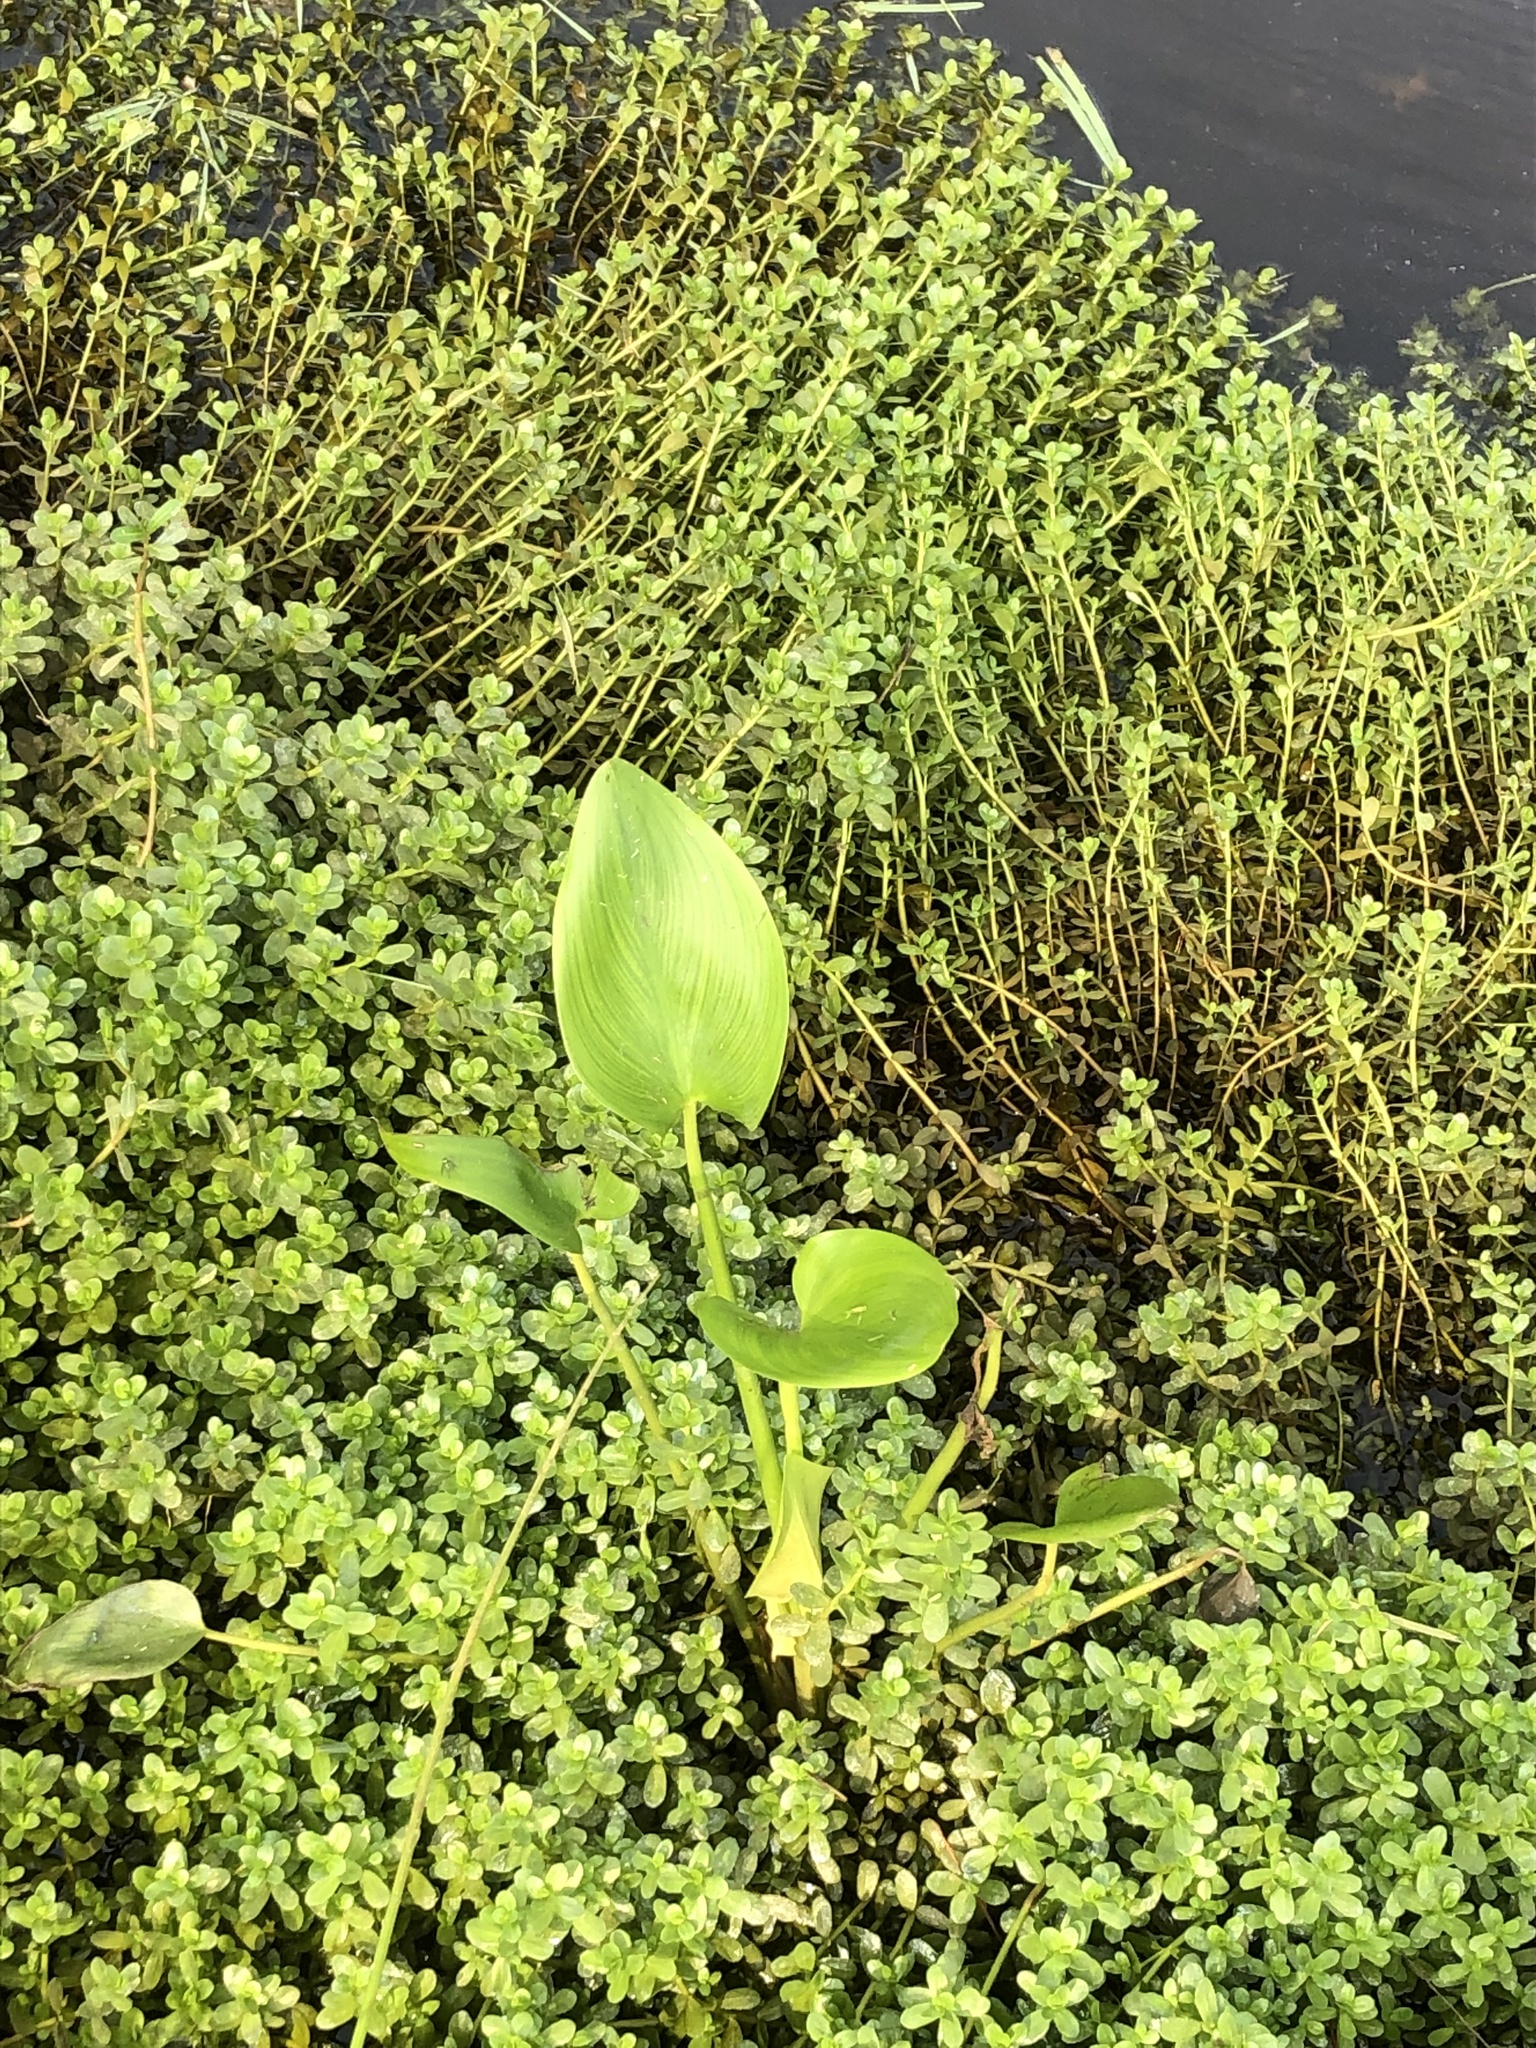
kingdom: Plantae
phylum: Tracheophyta
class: Liliopsida
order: Commelinales
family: Pontederiaceae
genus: Pontederia
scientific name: Pontederia cordata
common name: Pickerelweed
